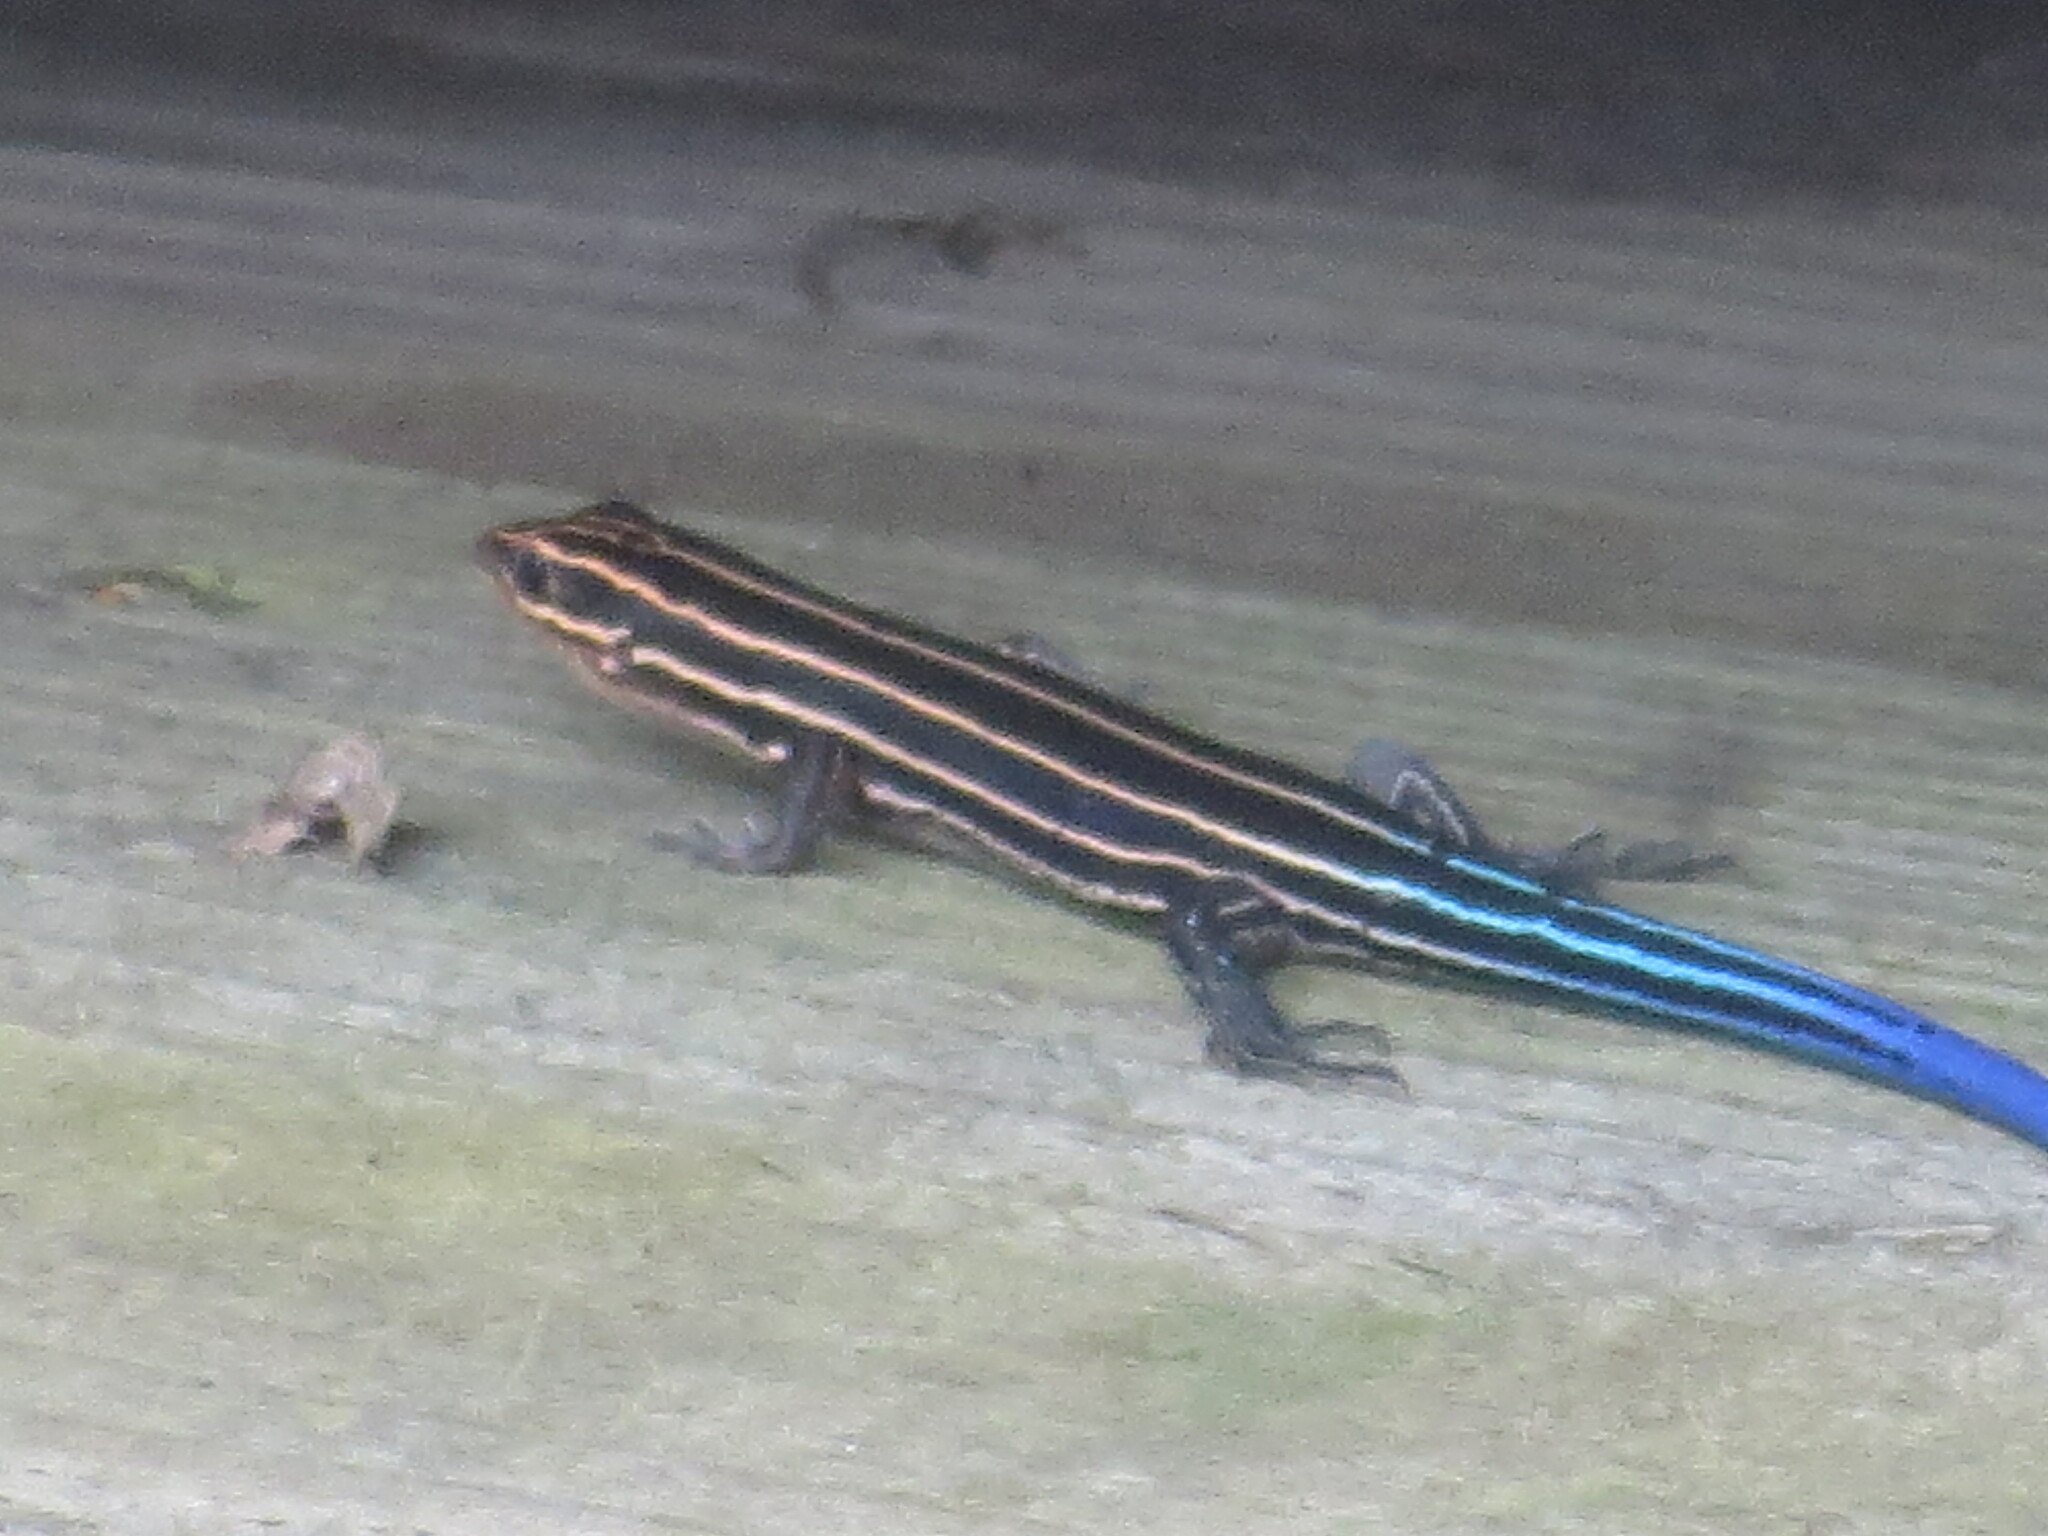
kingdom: Animalia
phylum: Chordata
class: Squamata
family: Scincidae
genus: Plestiodon
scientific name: Plestiodon laticeps
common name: Broadhead skink
